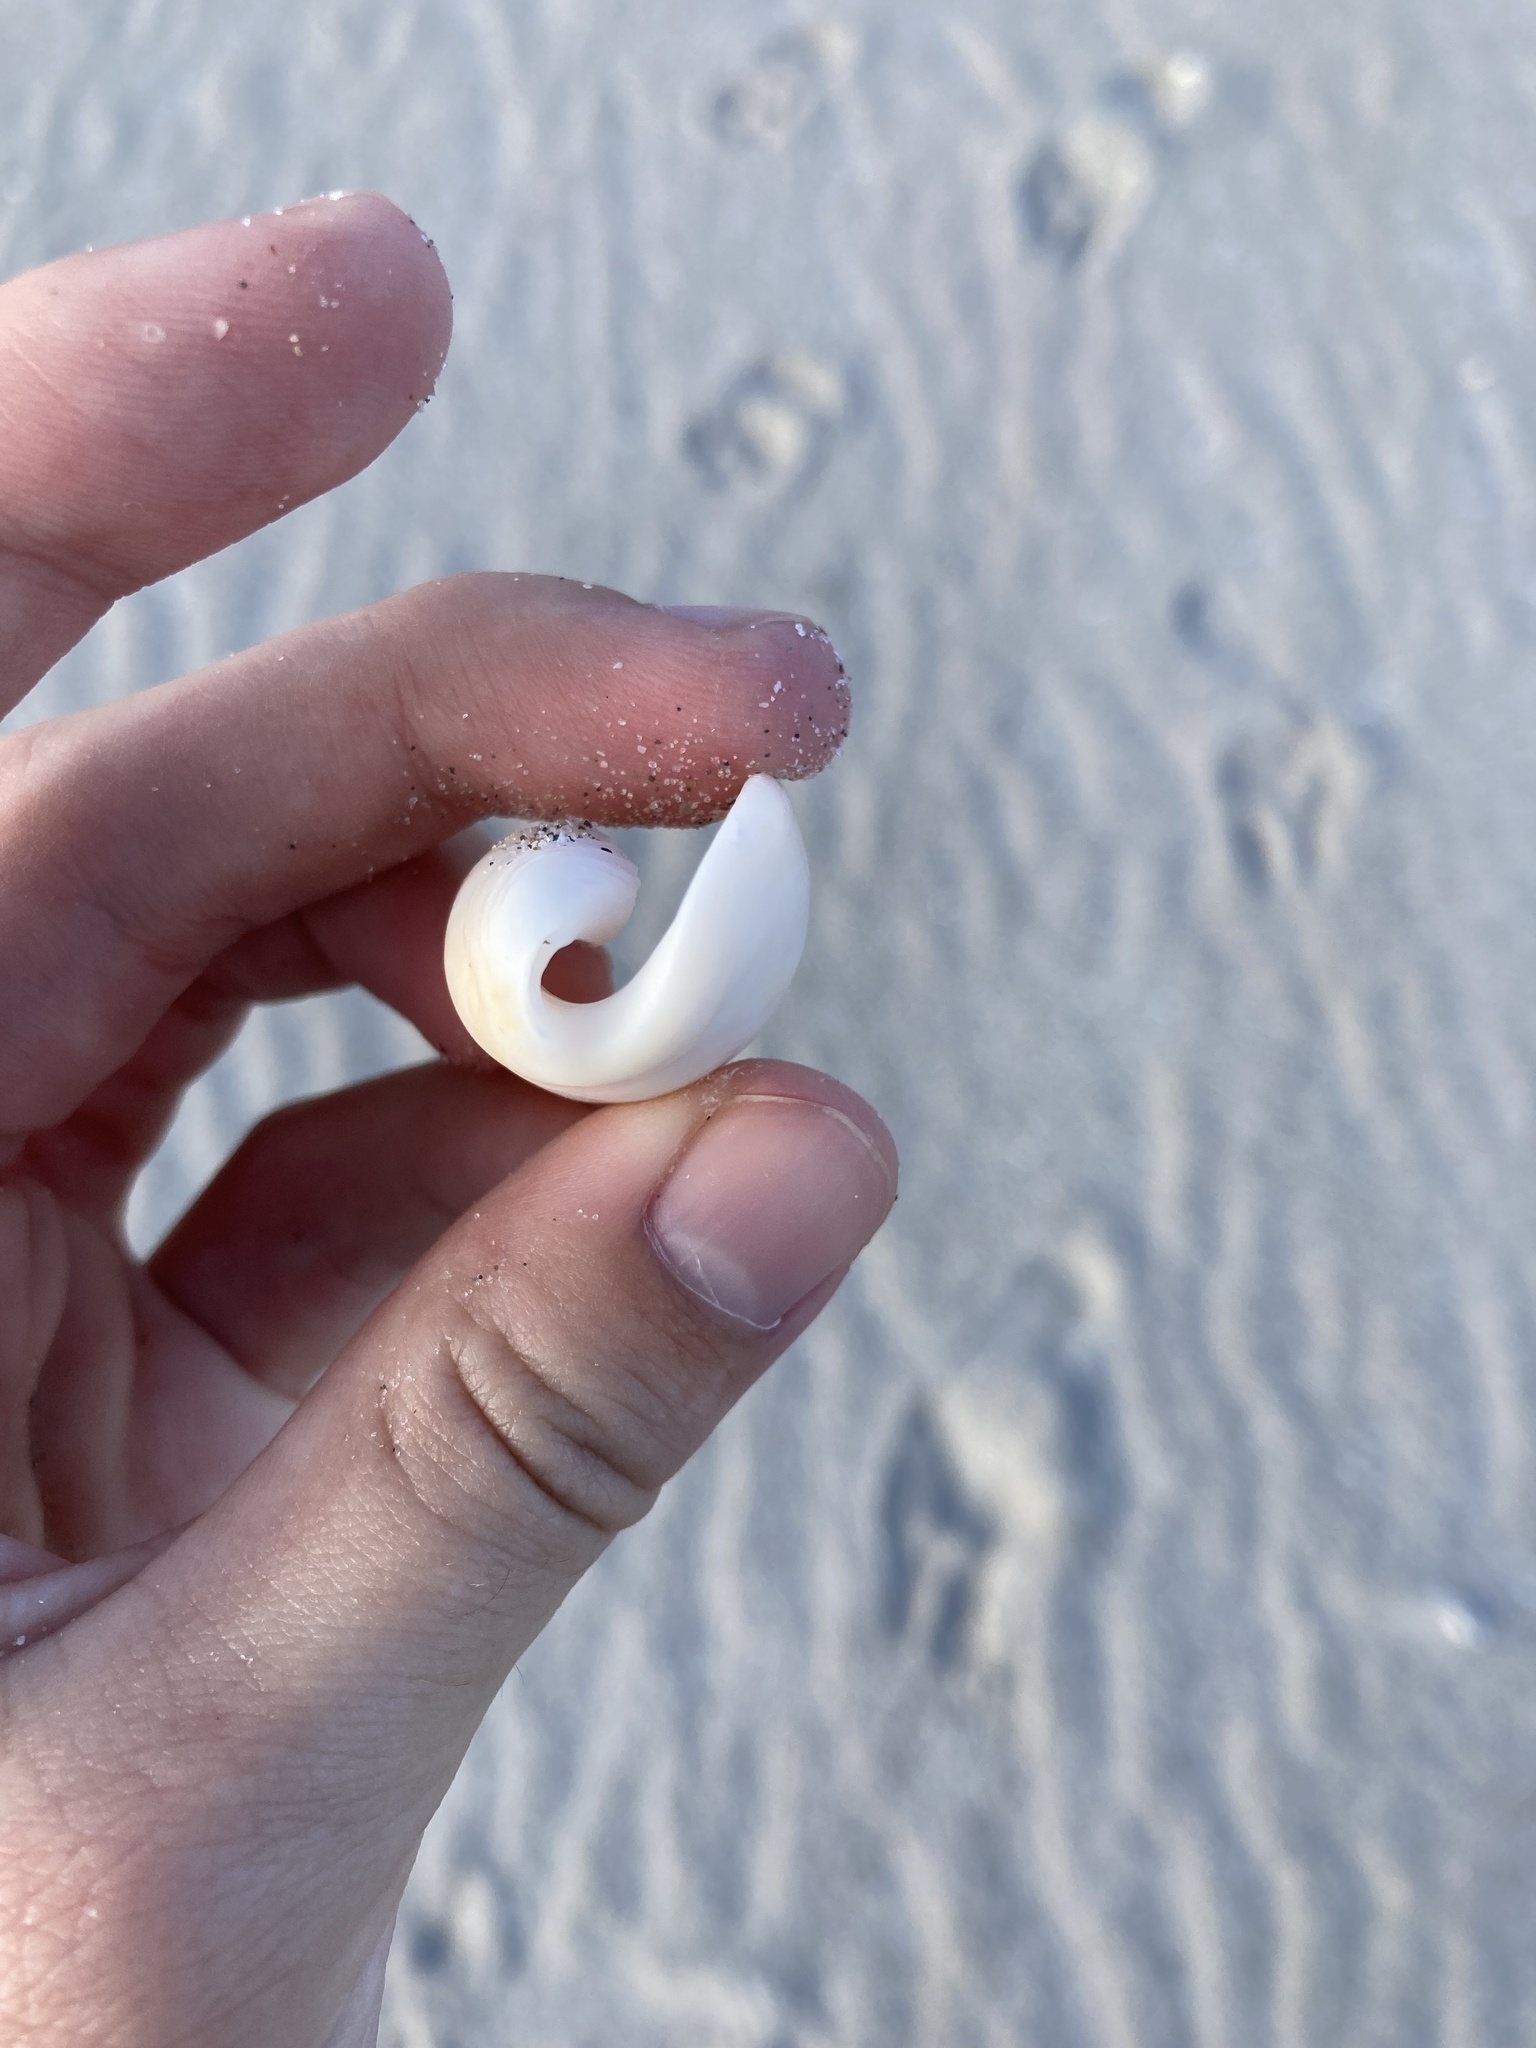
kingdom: Animalia
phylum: Mollusca
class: Gastropoda
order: Neogastropoda
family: Olividae
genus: Oliva
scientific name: Oliva sayana
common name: Lettered olive
